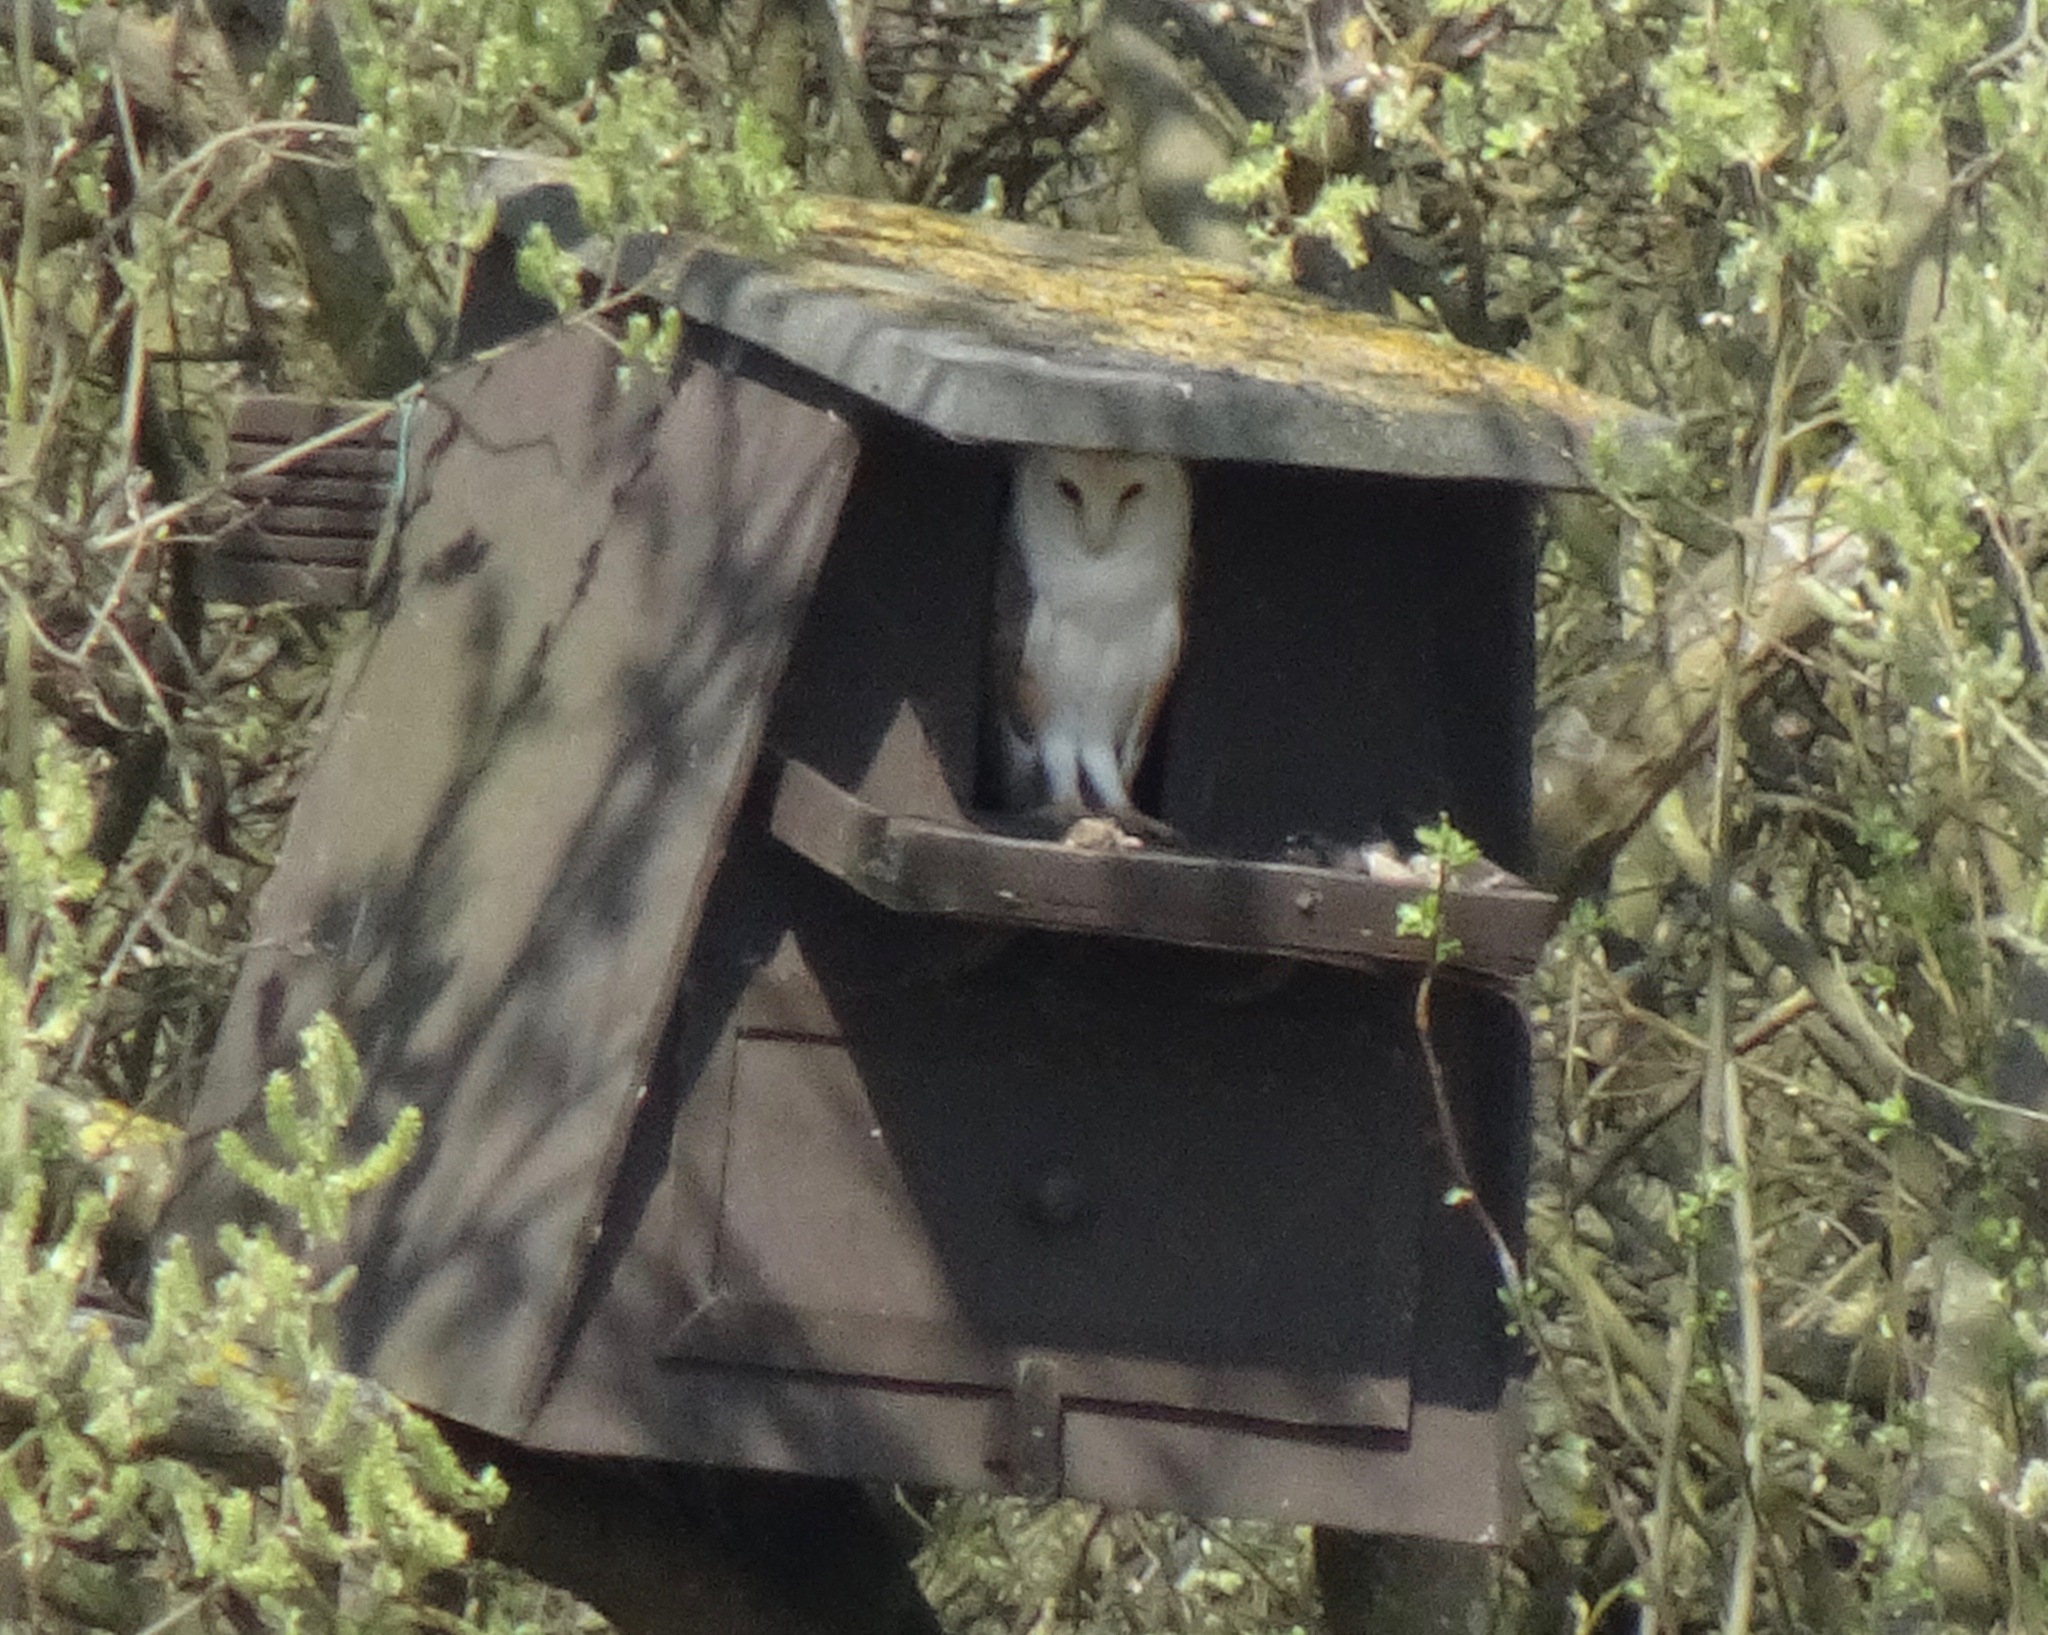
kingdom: Animalia
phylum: Chordata
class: Aves
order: Strigiformes
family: Tytonidae
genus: Tyto
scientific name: Tyto alba
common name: Barn owl
